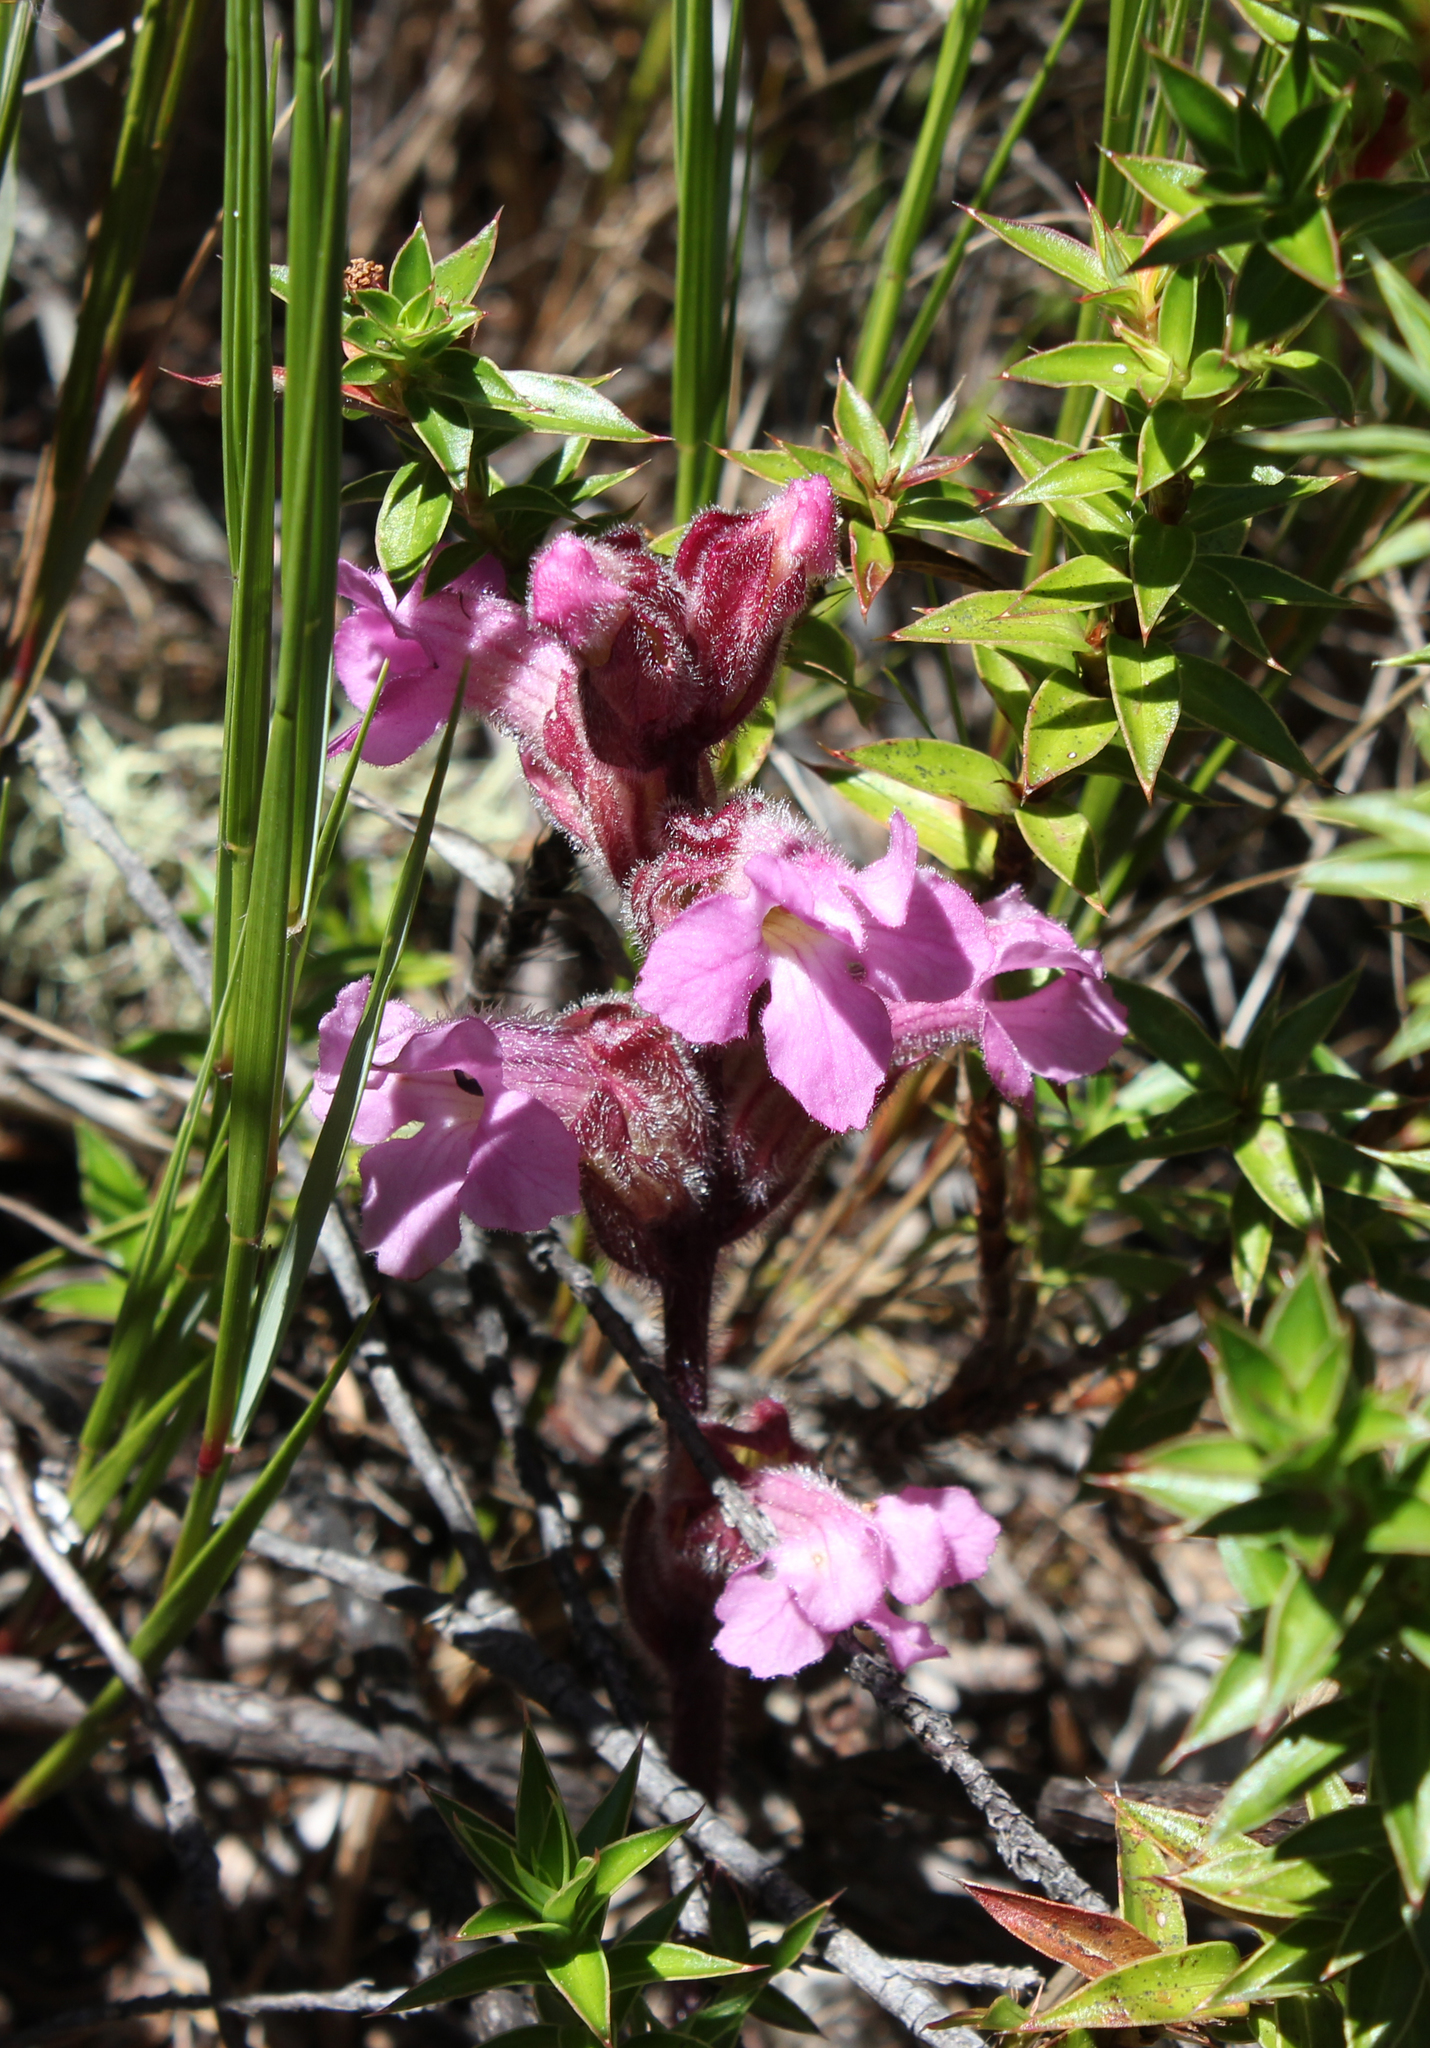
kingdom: Plantae
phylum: Tracheophyta
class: Magnoliopsida
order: Lamiales
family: Orobanchaceae
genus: Harveya
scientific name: Harveya pauciflora
